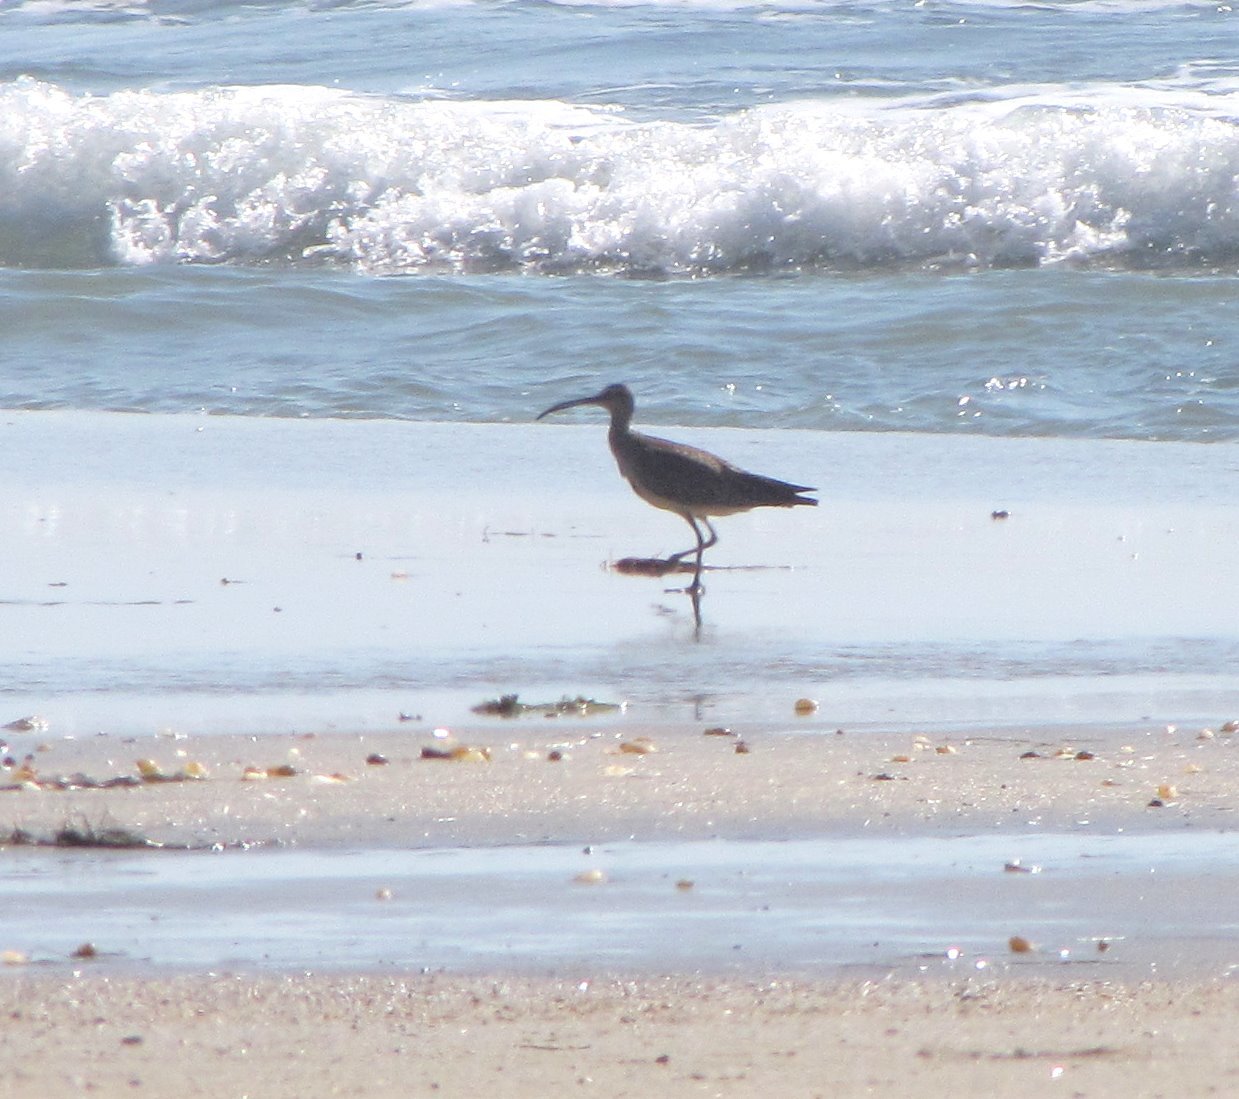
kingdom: Animalia
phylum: Chordata
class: Aves
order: Charadriiformes
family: Scolopacidae
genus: Numenius
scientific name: Numenius phaeopus
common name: Whimbrel
